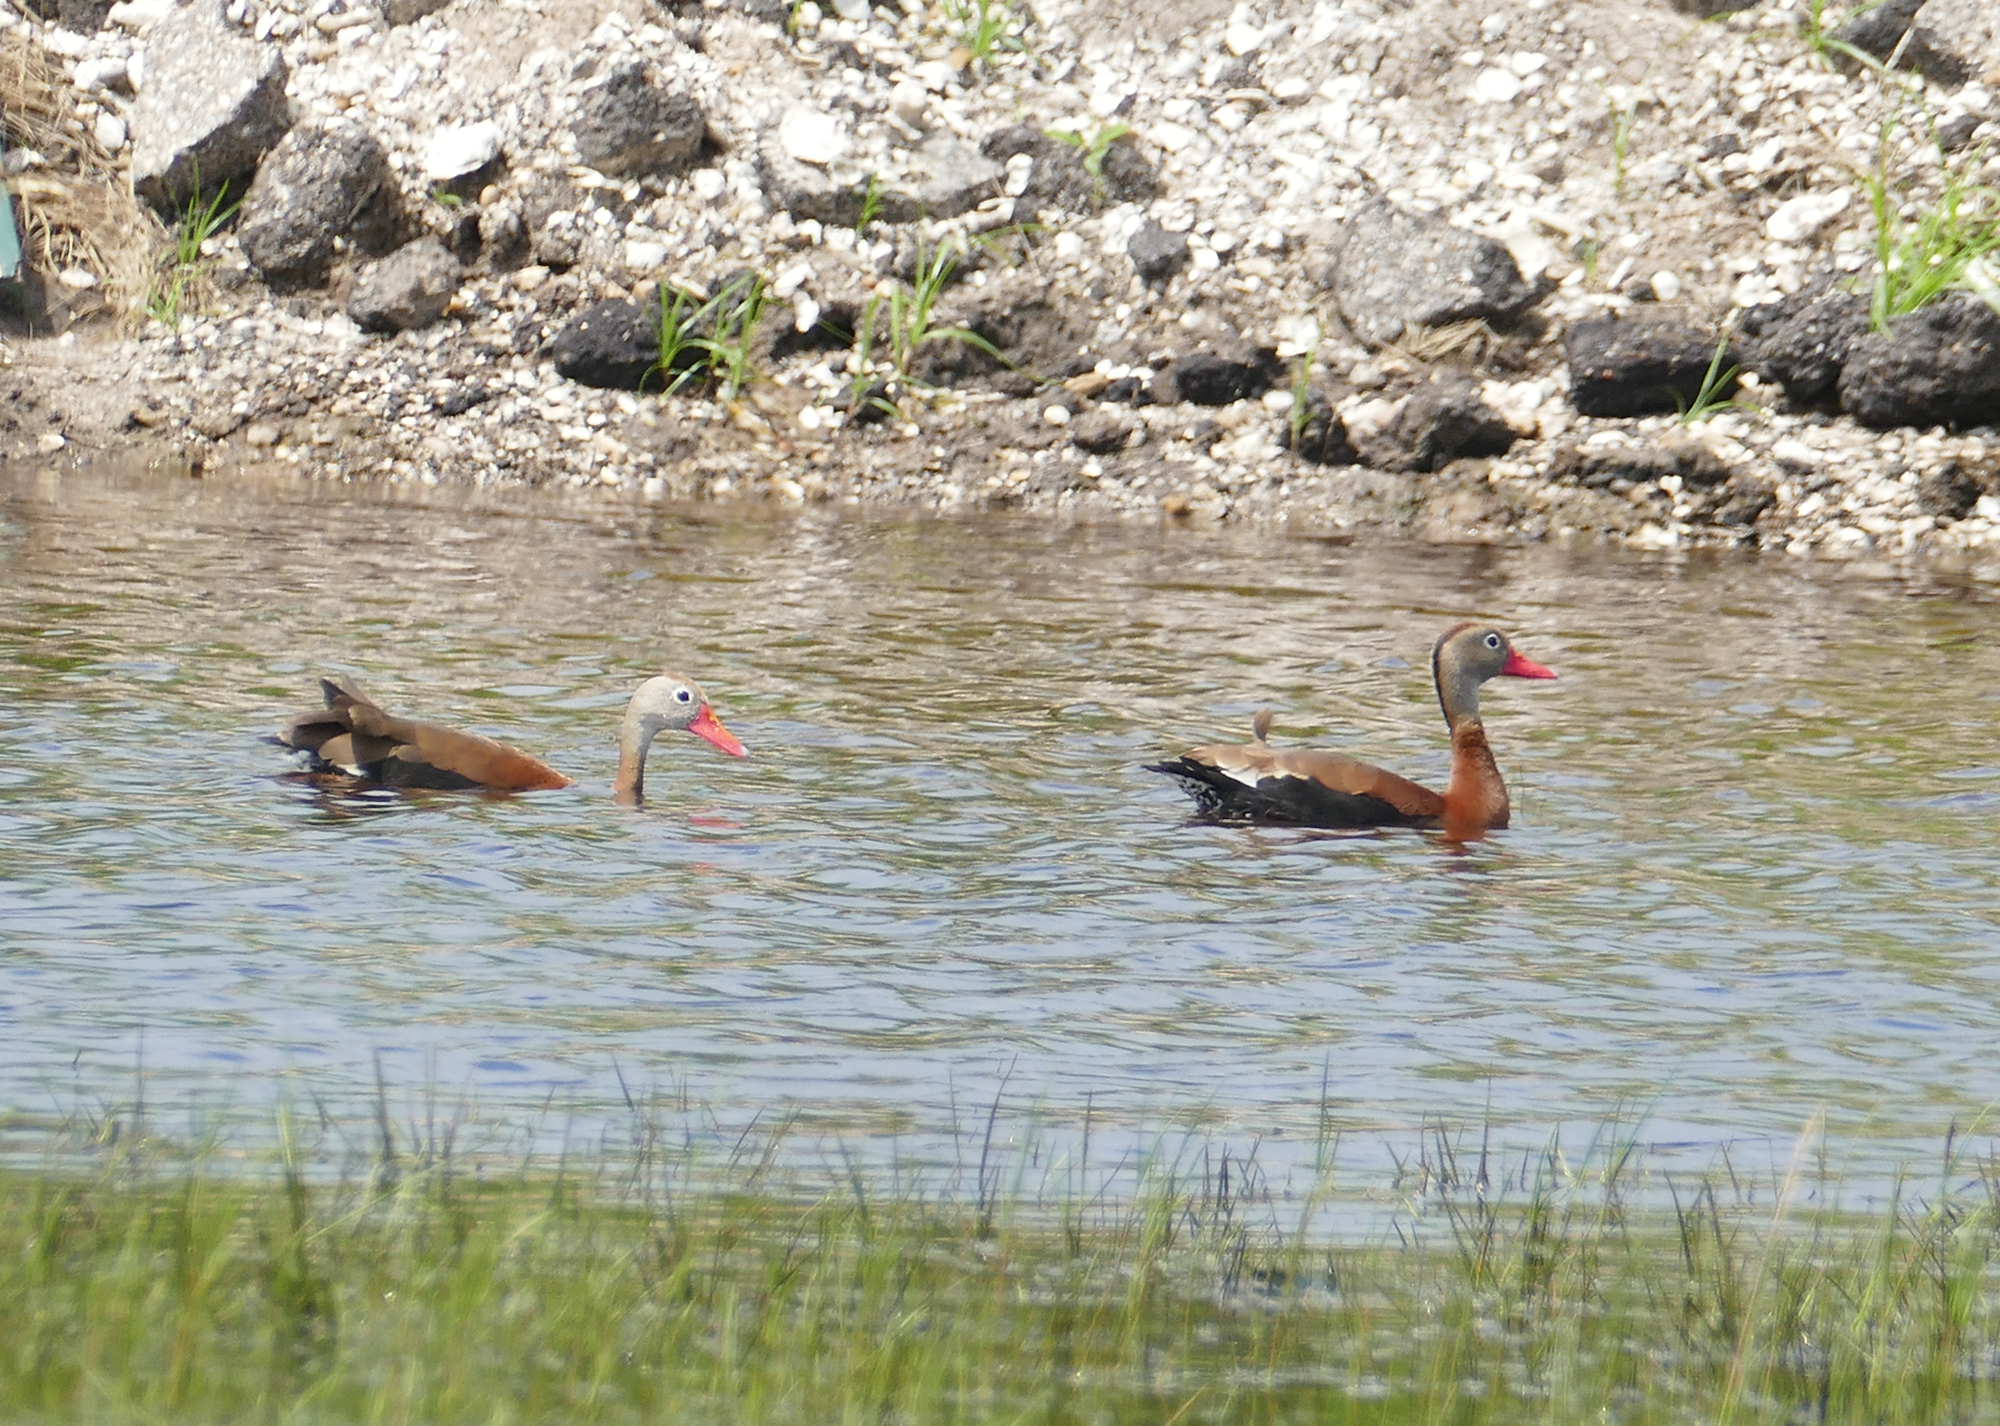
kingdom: Animalia
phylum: Chordata
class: Aves
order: Anseriformes
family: Anatidae
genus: Dendrocygna
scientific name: Dendrocygna autumnalis
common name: Black-bellied whistling duck
